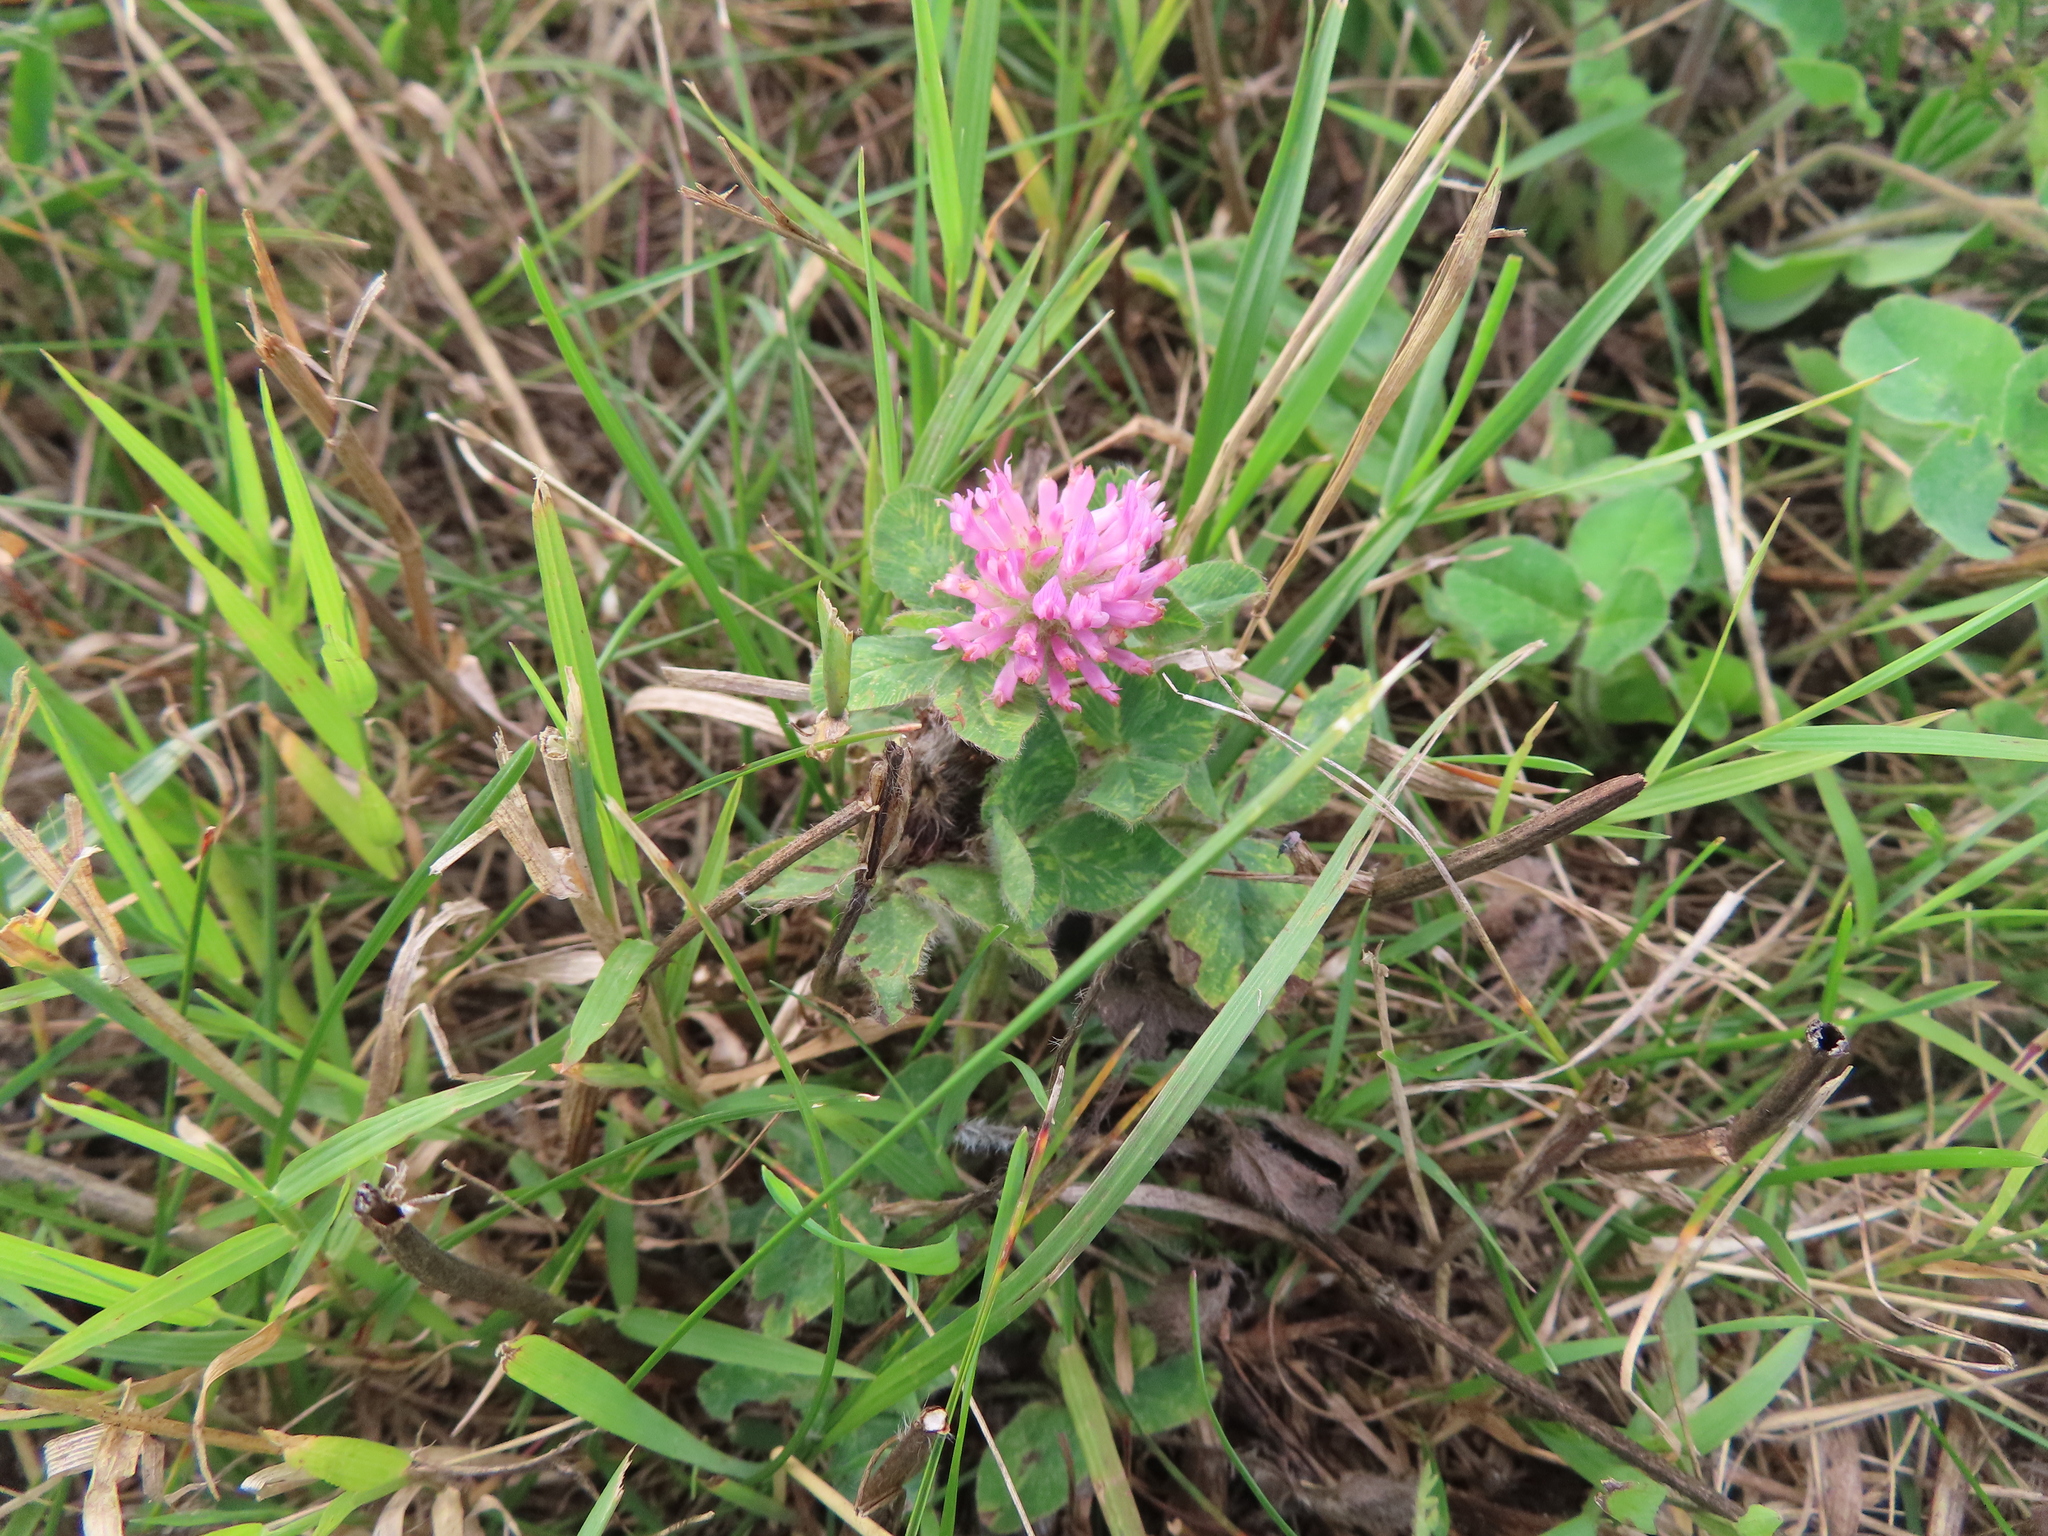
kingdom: Plantae
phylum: Tracheophyta
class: Magnoliopsida
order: Fabales
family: Fabaceae
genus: Trifolium
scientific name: Trifolium pratense
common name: Red clover
